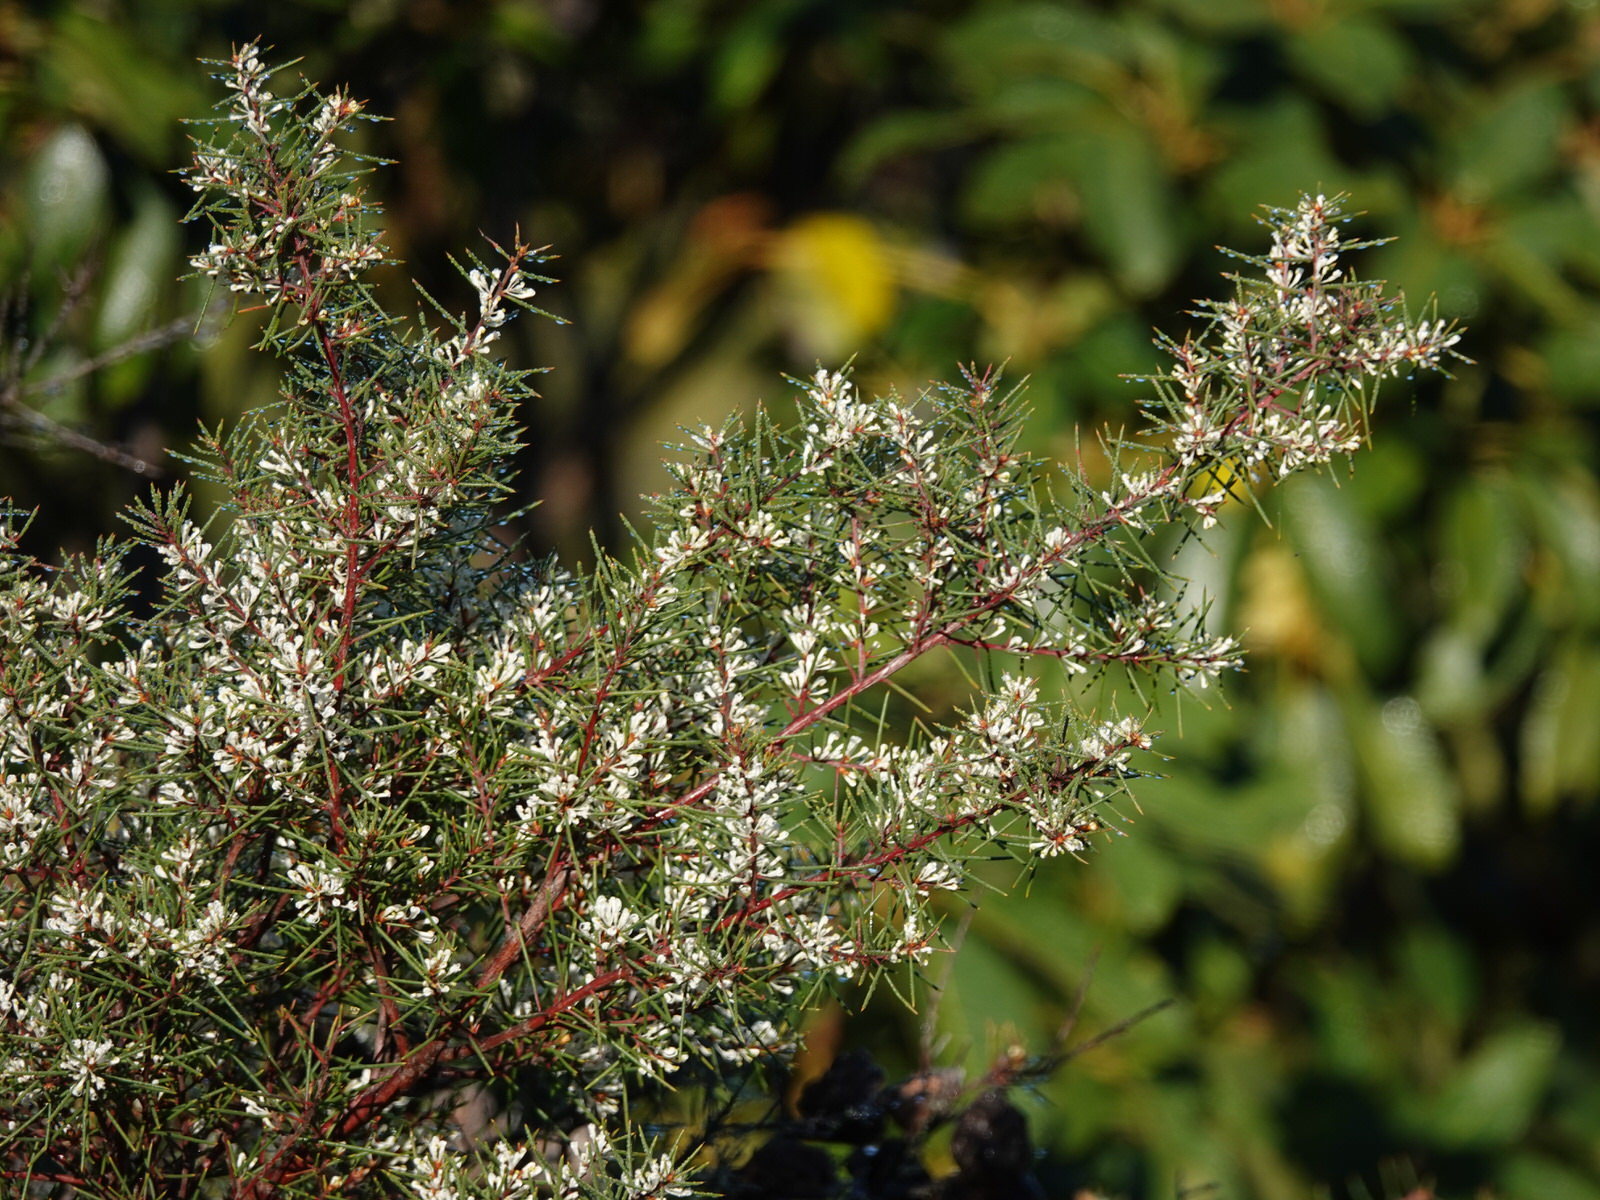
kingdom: Plantae
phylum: Tracheophyta
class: Magnoliopsida
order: Proteales
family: Proteaceae
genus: Hakea
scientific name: Hakea sericea
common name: Needle bush
